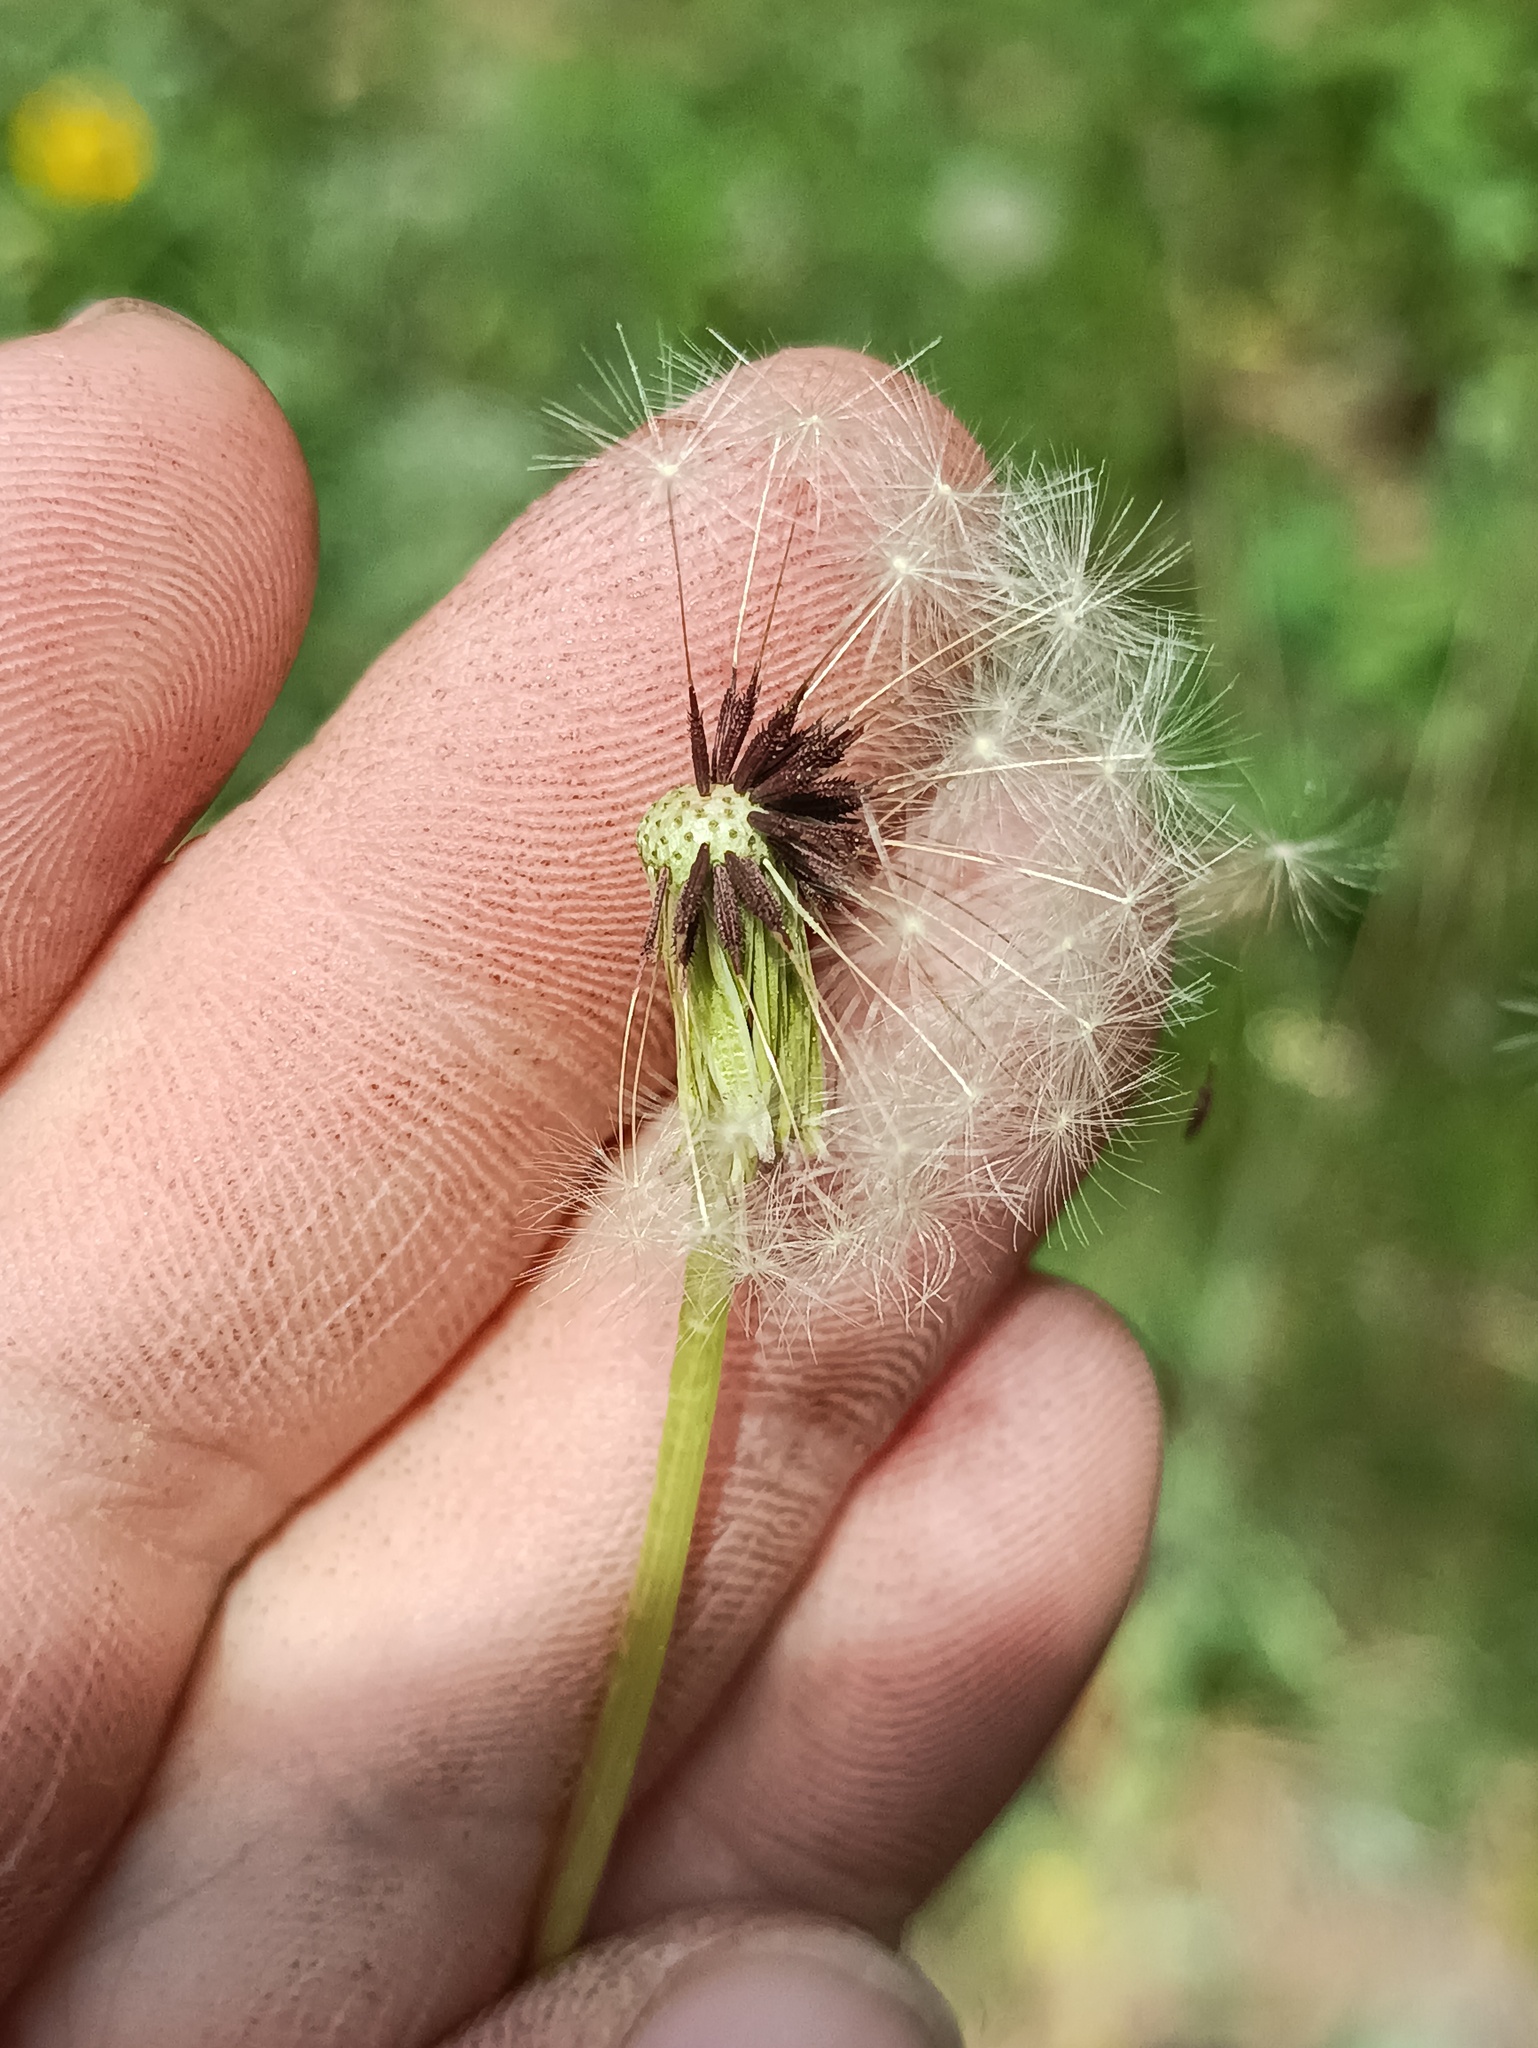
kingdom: Plantae
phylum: Tracheophyta
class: Magnoliopsida
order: Asterales
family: Asteraceae
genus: Taraxacum
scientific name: Taraxacum officinale
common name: Common dandelion
